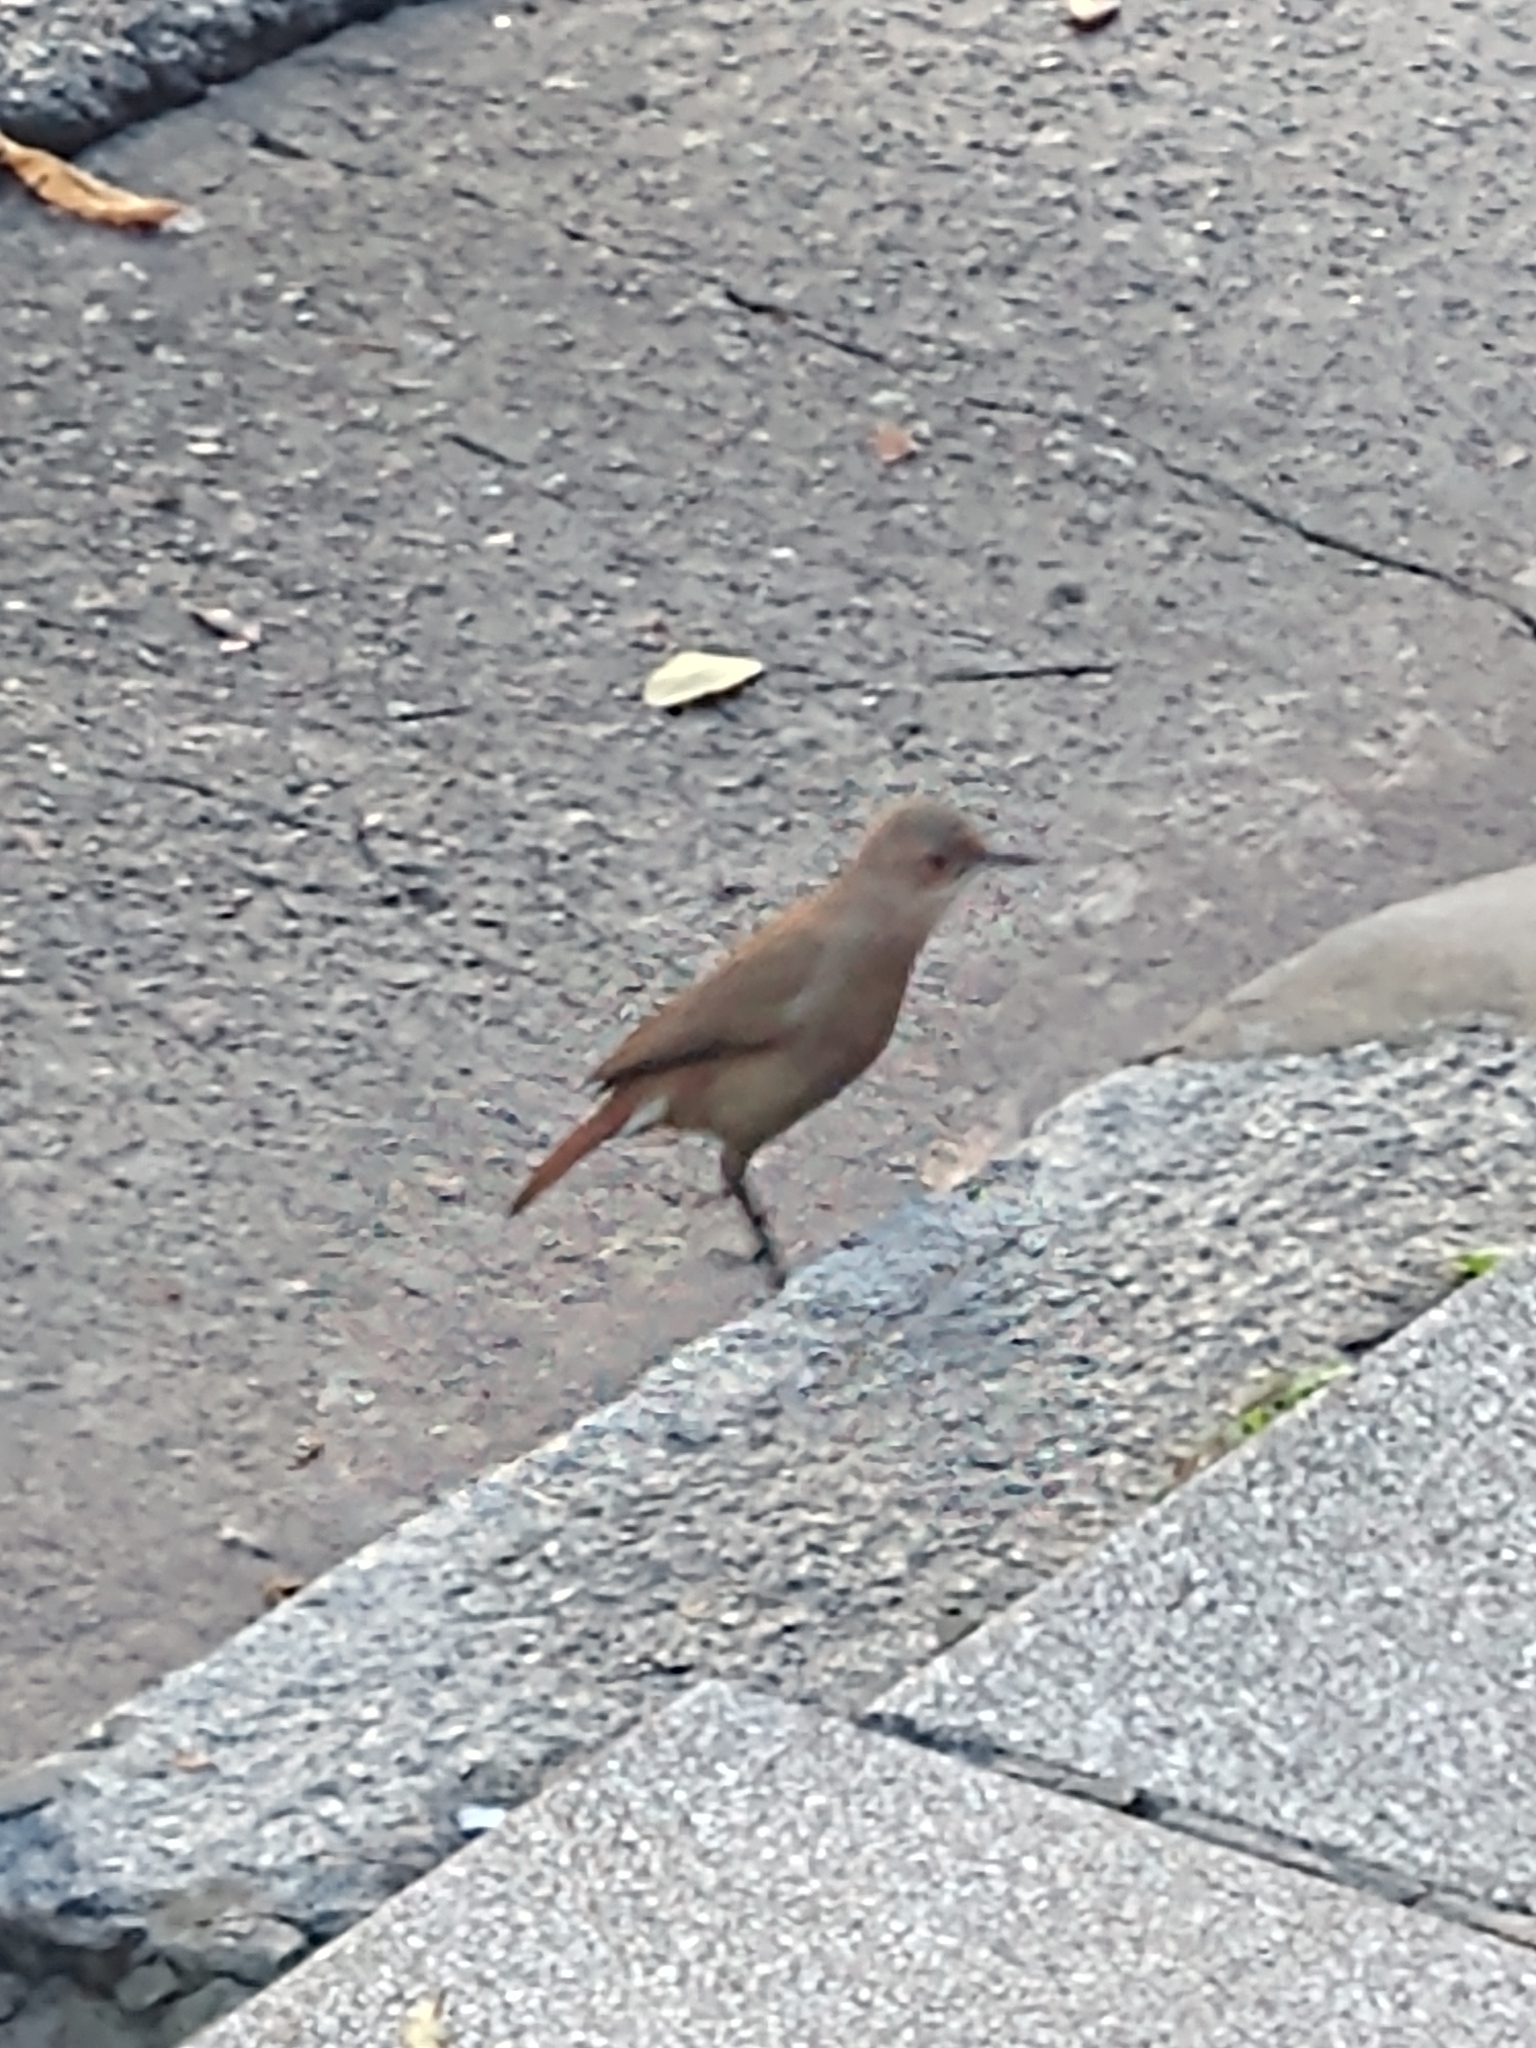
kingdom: Animalia
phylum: Chordata
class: Aves
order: Passeriformes
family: Furnariidae
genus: Furnarius
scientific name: Furnarius rufus
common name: Rufous hornero
